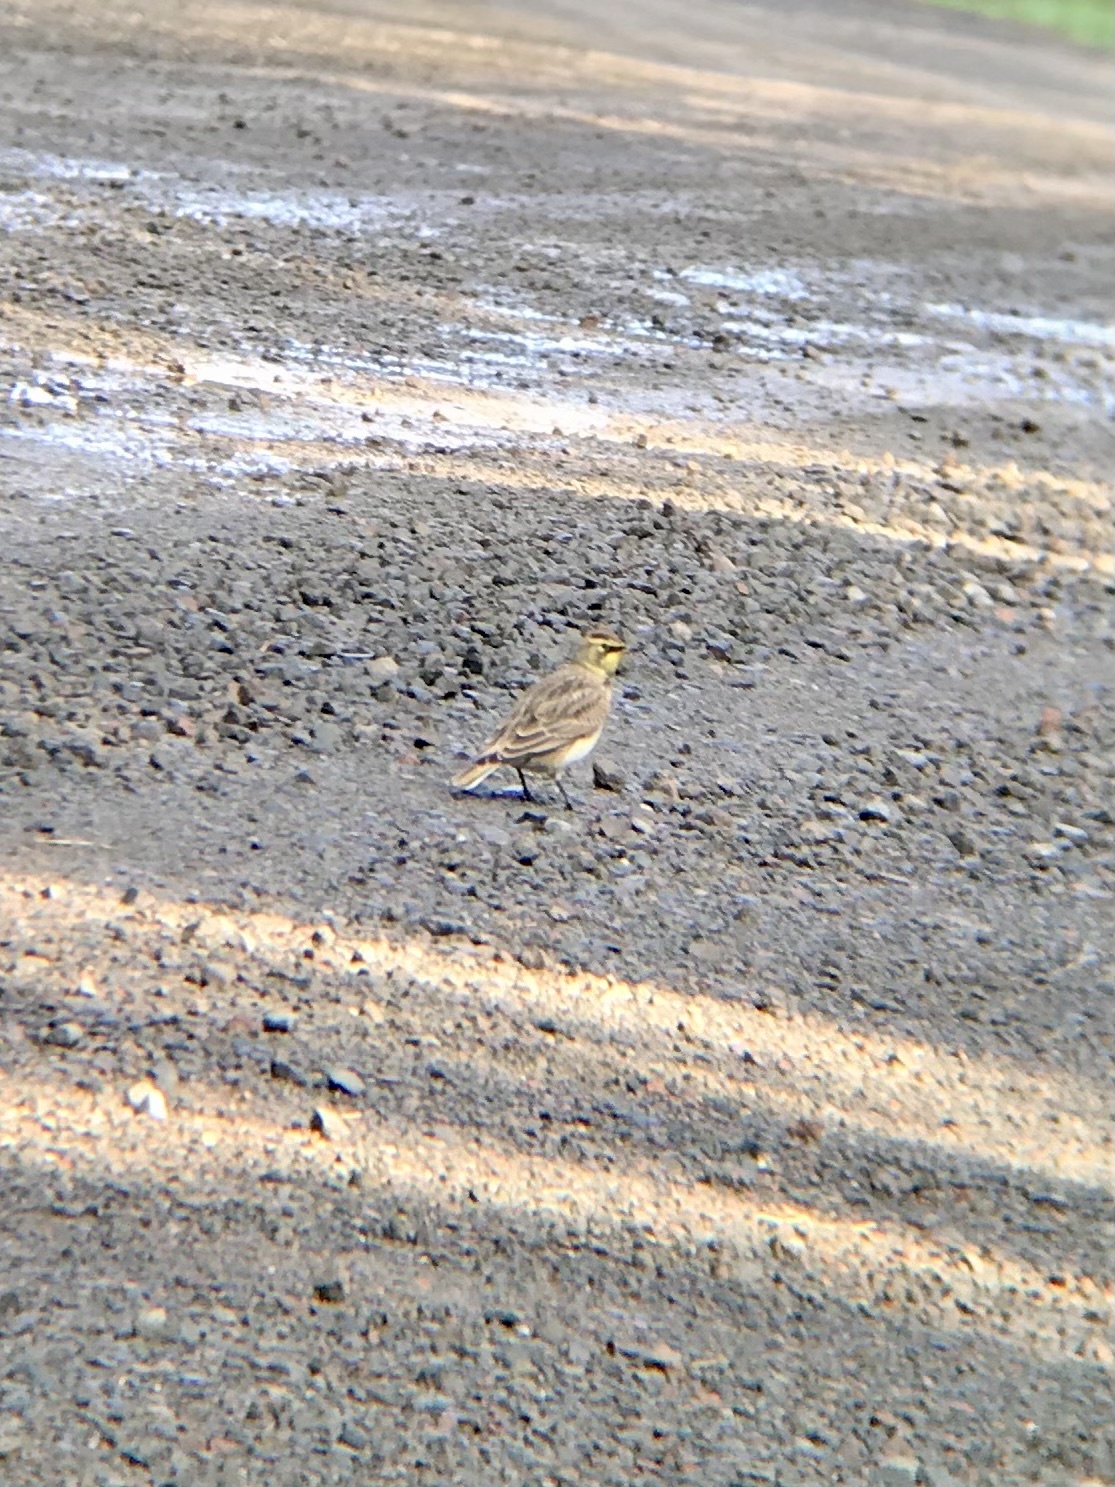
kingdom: Animalia
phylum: Chordata
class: Aves
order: Passeriformes
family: Alaudidae
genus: Eremophila
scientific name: Eremophila alpestris
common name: Horned lark
